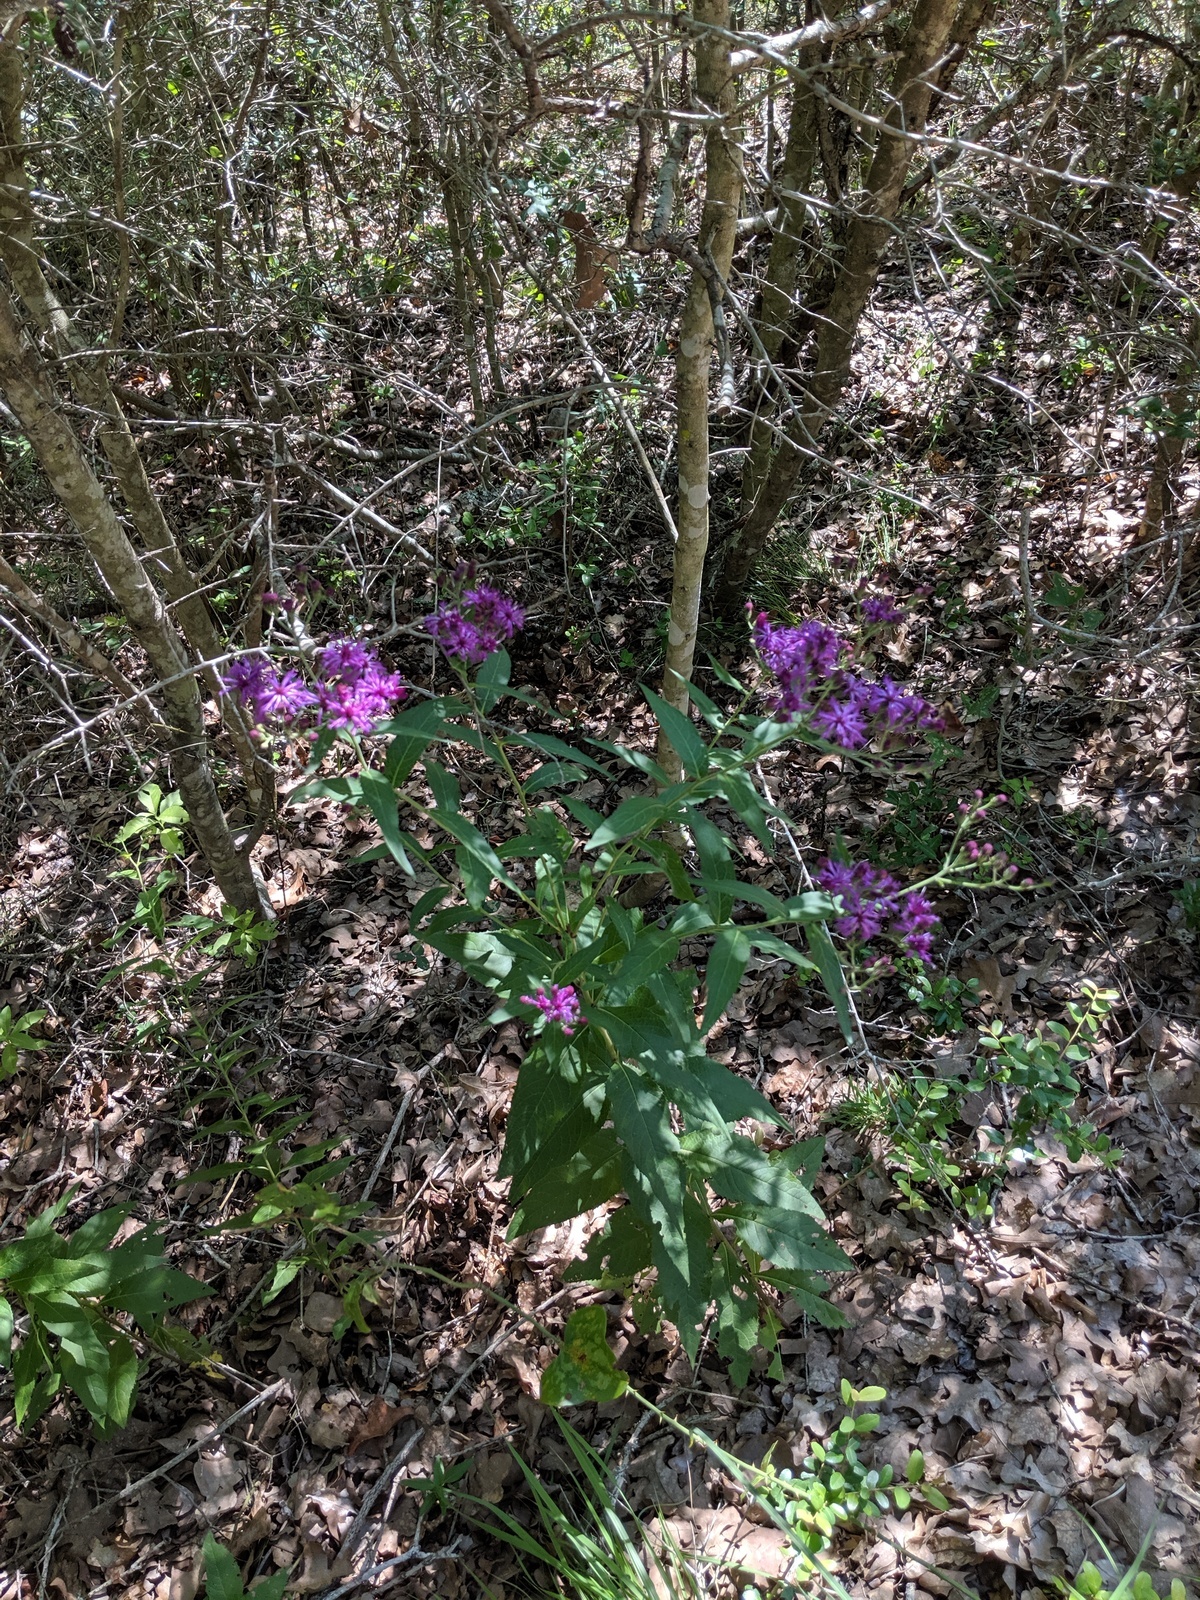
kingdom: Plantae
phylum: Tracheophyta
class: Magnoliopsida
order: Asterales
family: Asteraceae
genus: Vernonia
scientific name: Vernonia baldwinii
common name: Western ironweed
